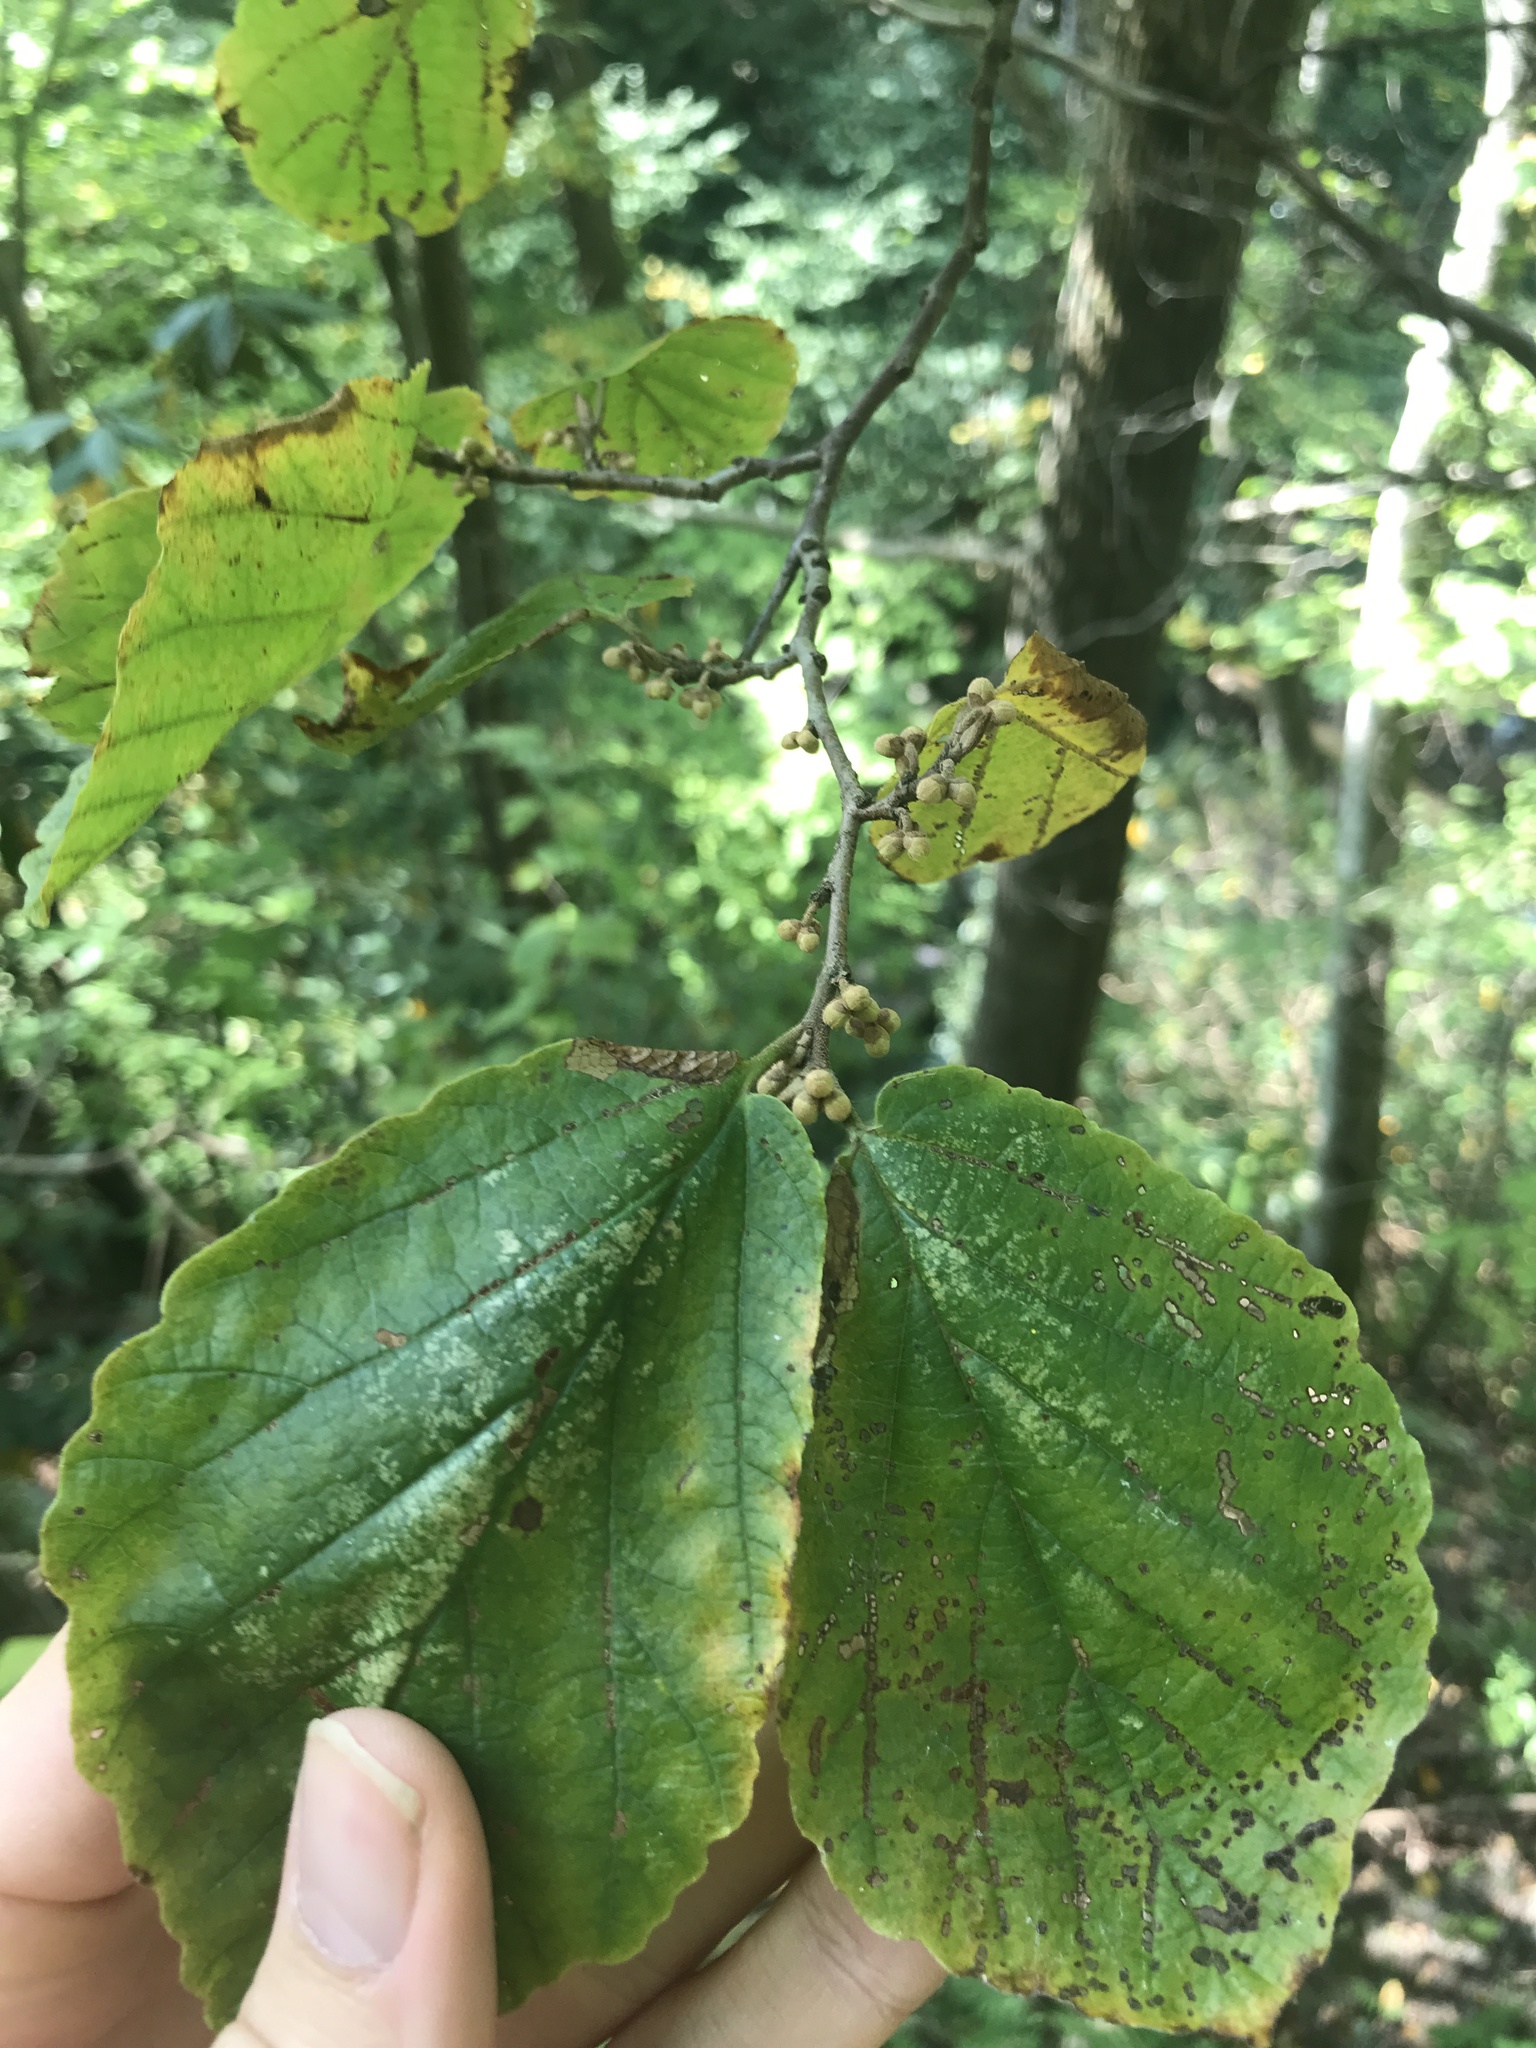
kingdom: Plantae
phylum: Tracheophyta
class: Magnoliopsida
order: Saxifragales
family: Hamamelidaceae
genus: Hamamelis
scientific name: Hamamelis virginiana
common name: Witch-hazel
